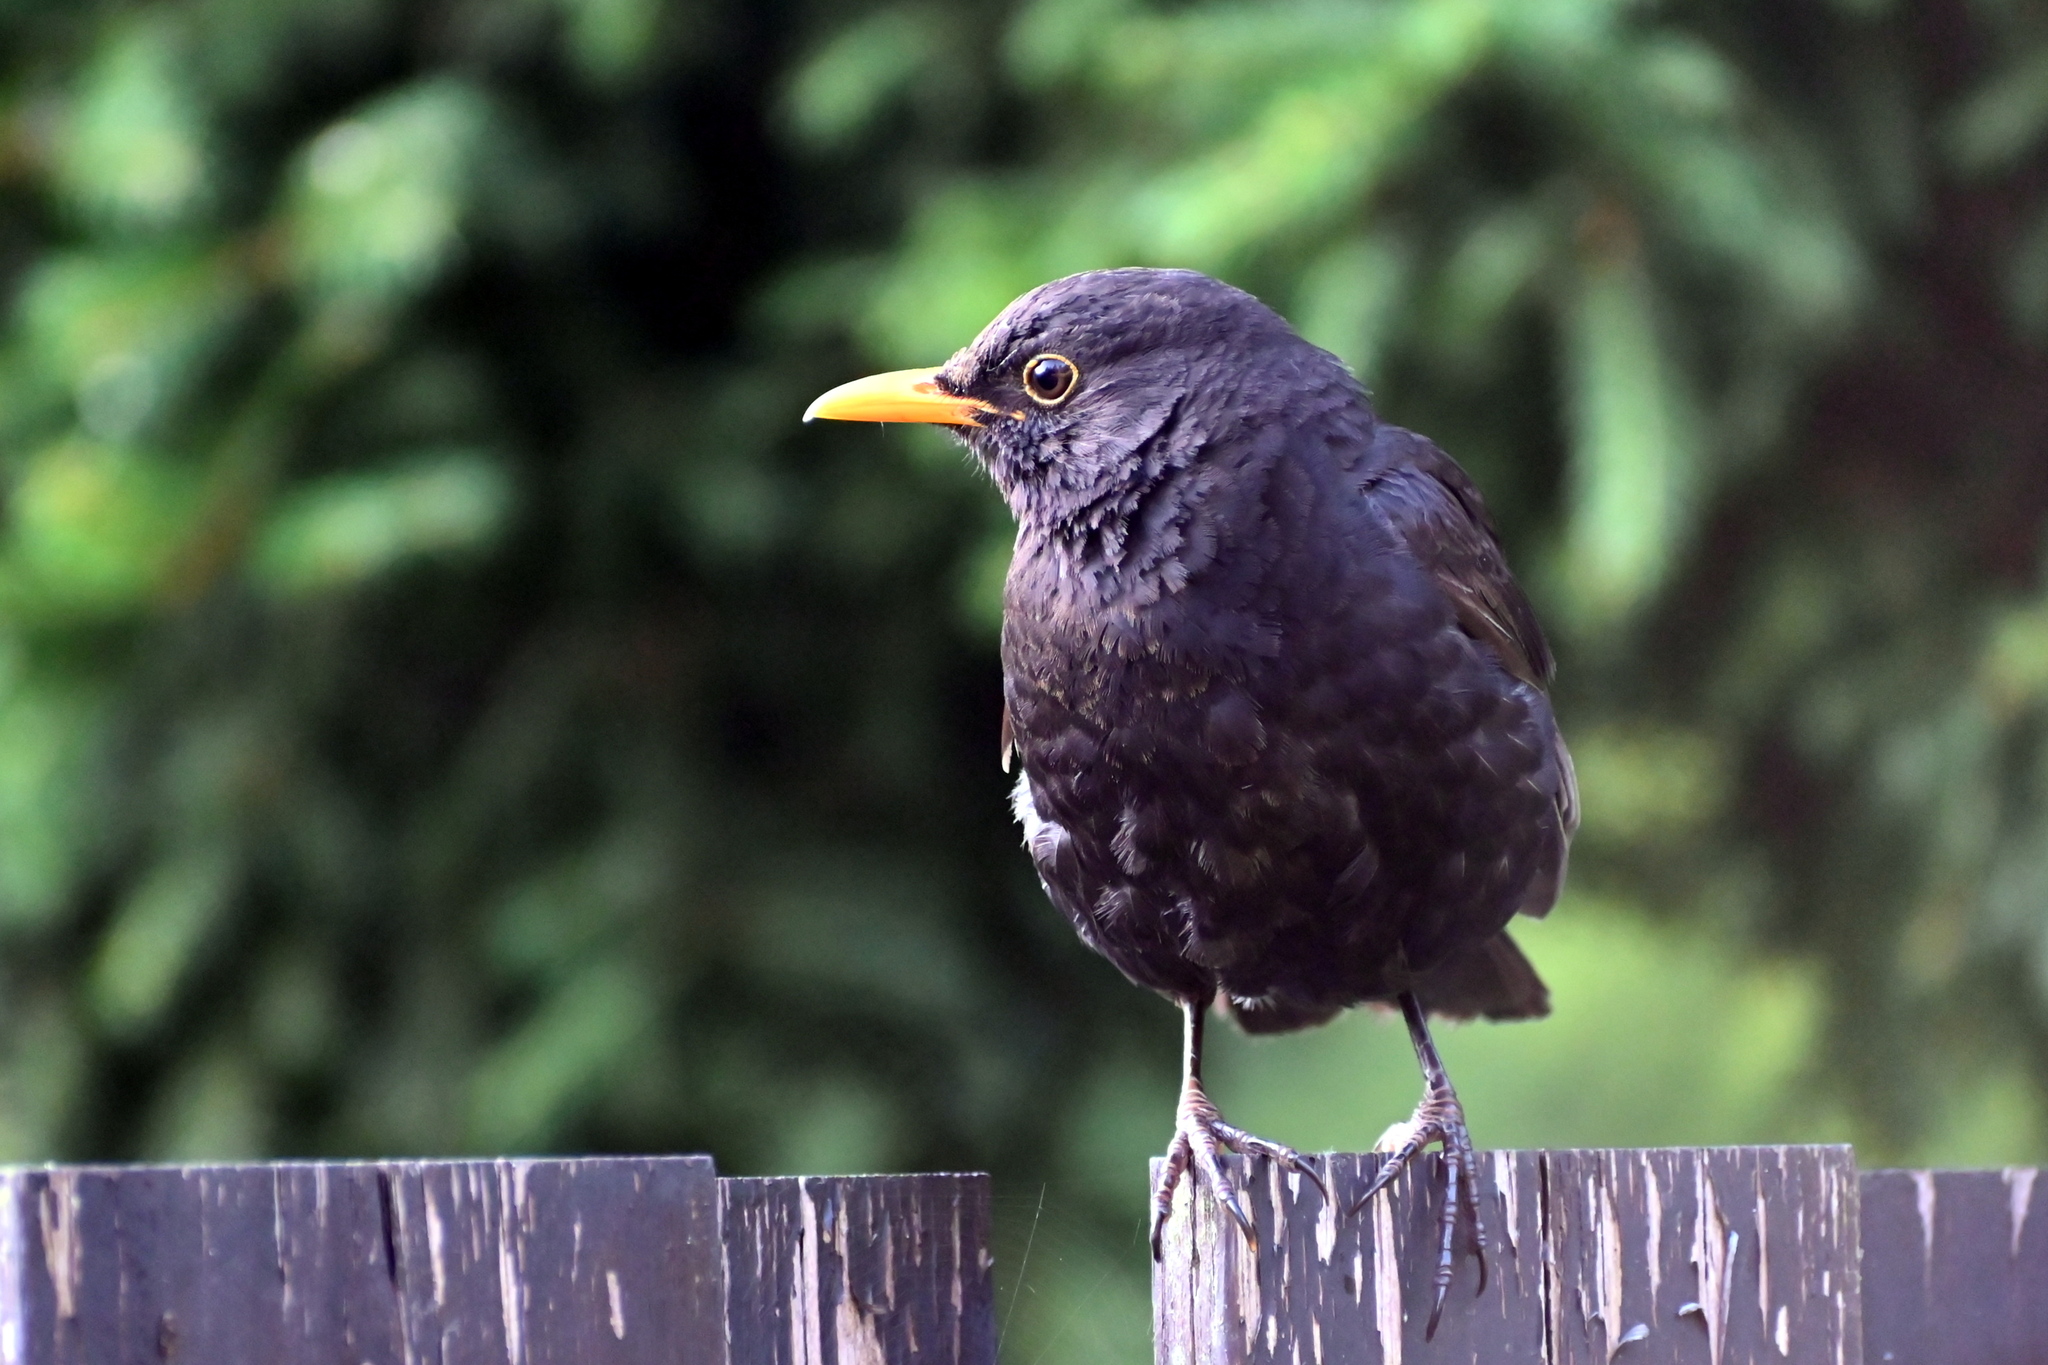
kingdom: Animalia
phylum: Chordata
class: Aves
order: Passeriformes
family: Turdidae
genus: Turdus
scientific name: Turdus merula
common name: Common blackbird
